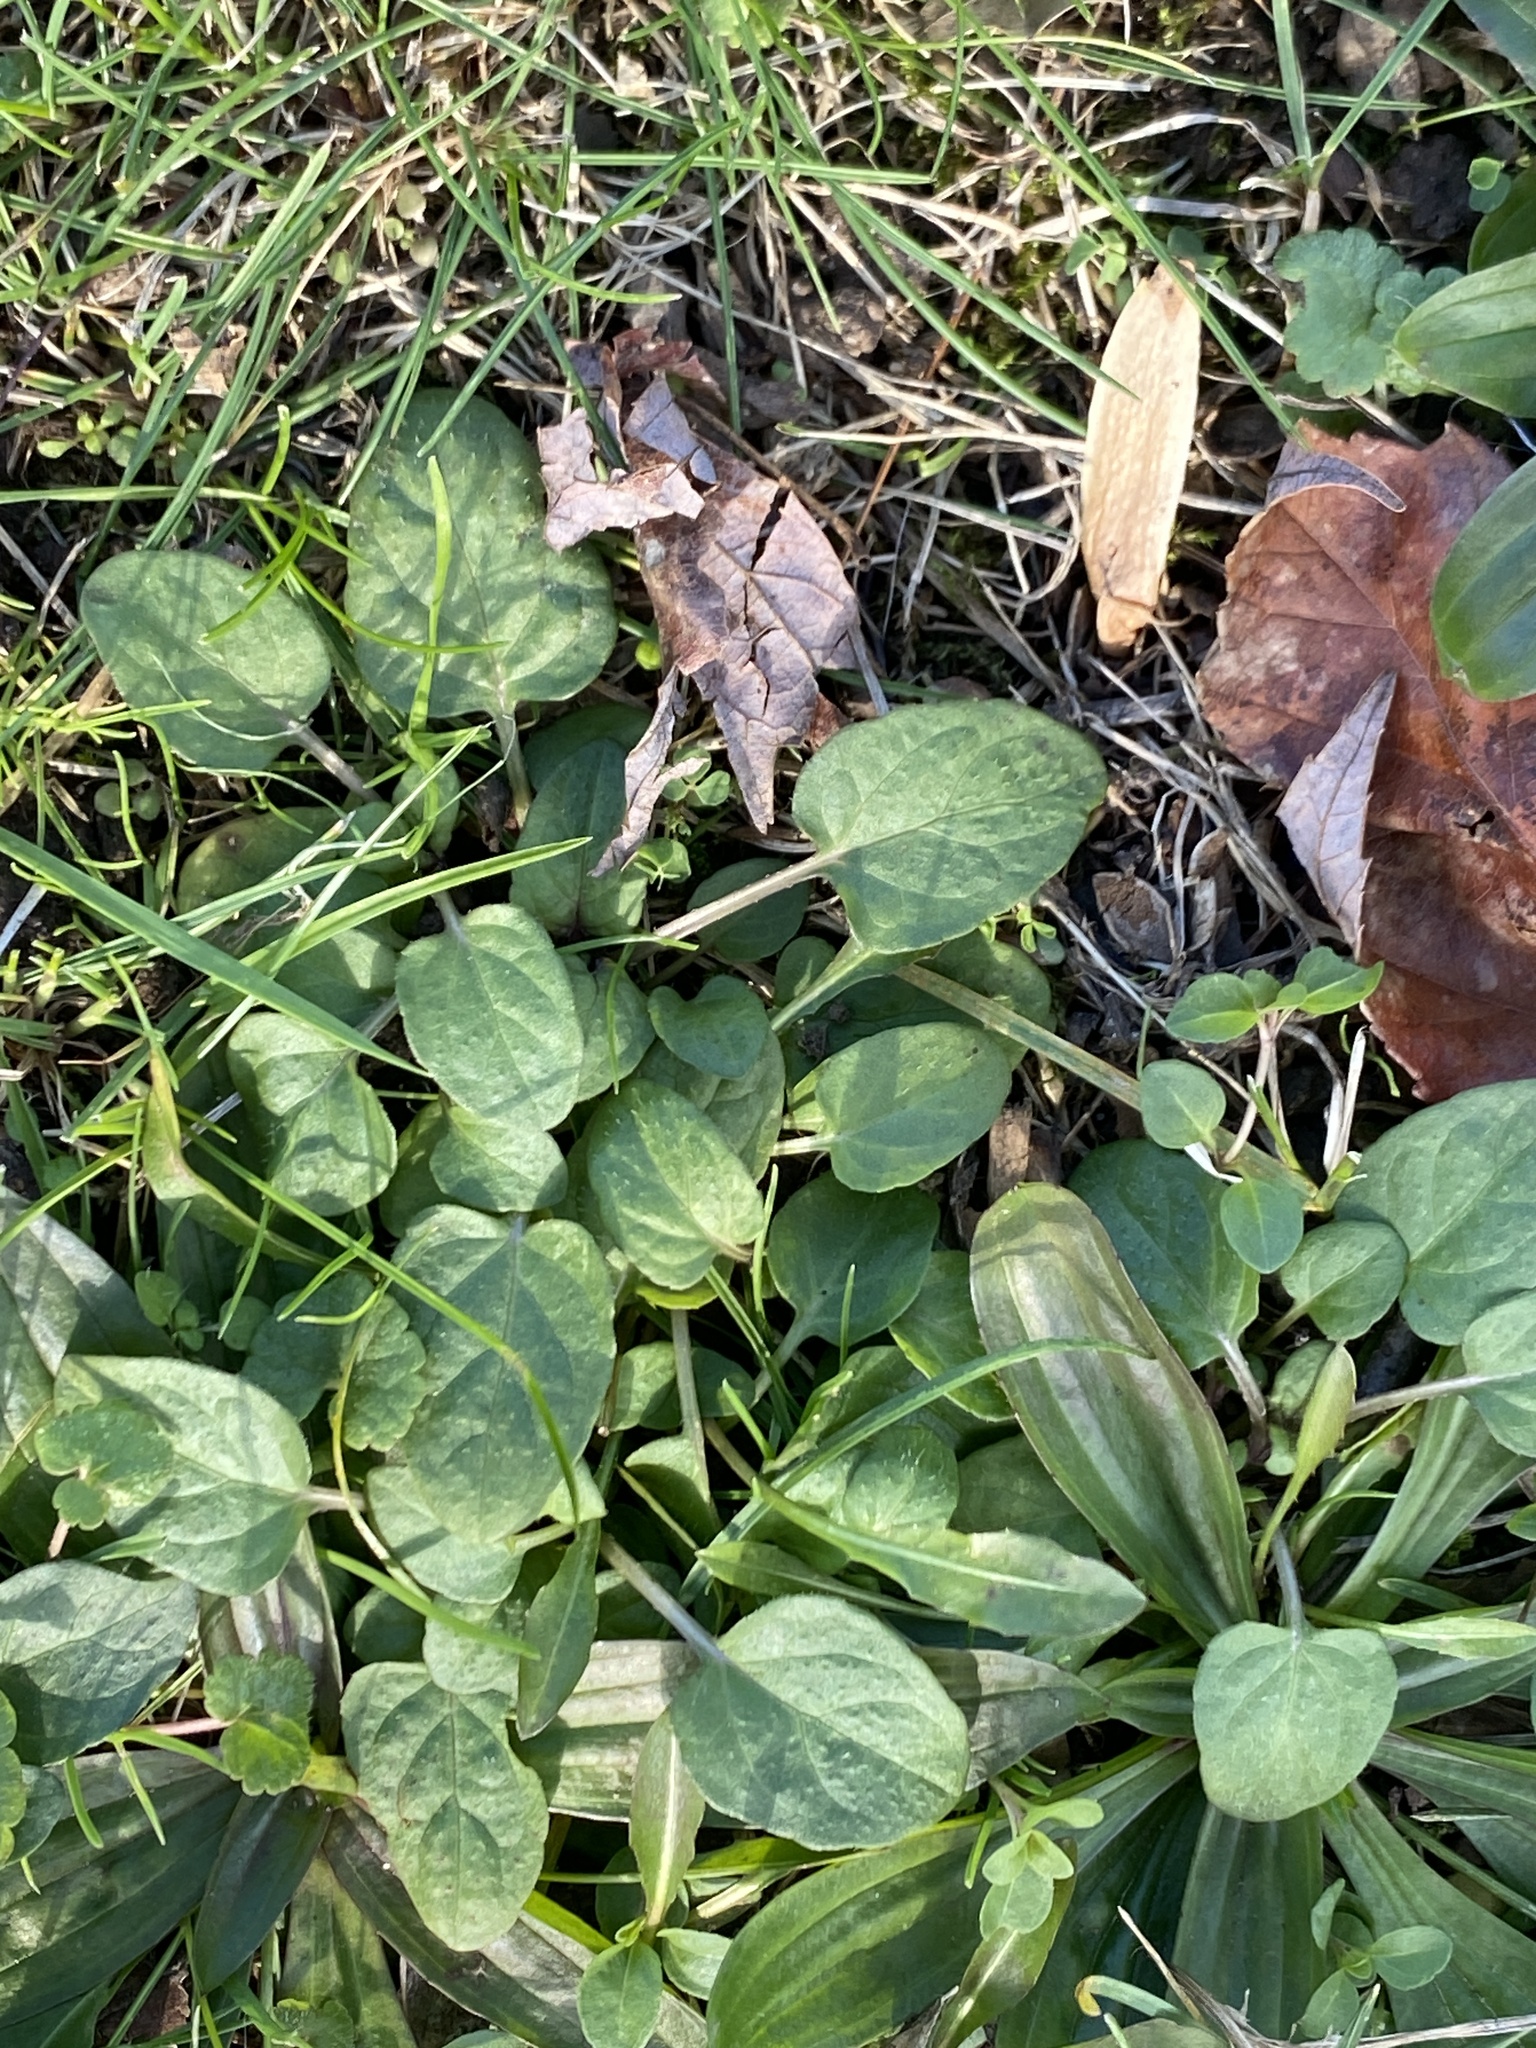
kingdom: Plantae
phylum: Tracheophyta
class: Magnoliopsida
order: Lamiales
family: Lamiaceae
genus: Prunella
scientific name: Prunella vulgaris
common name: Heal-all
